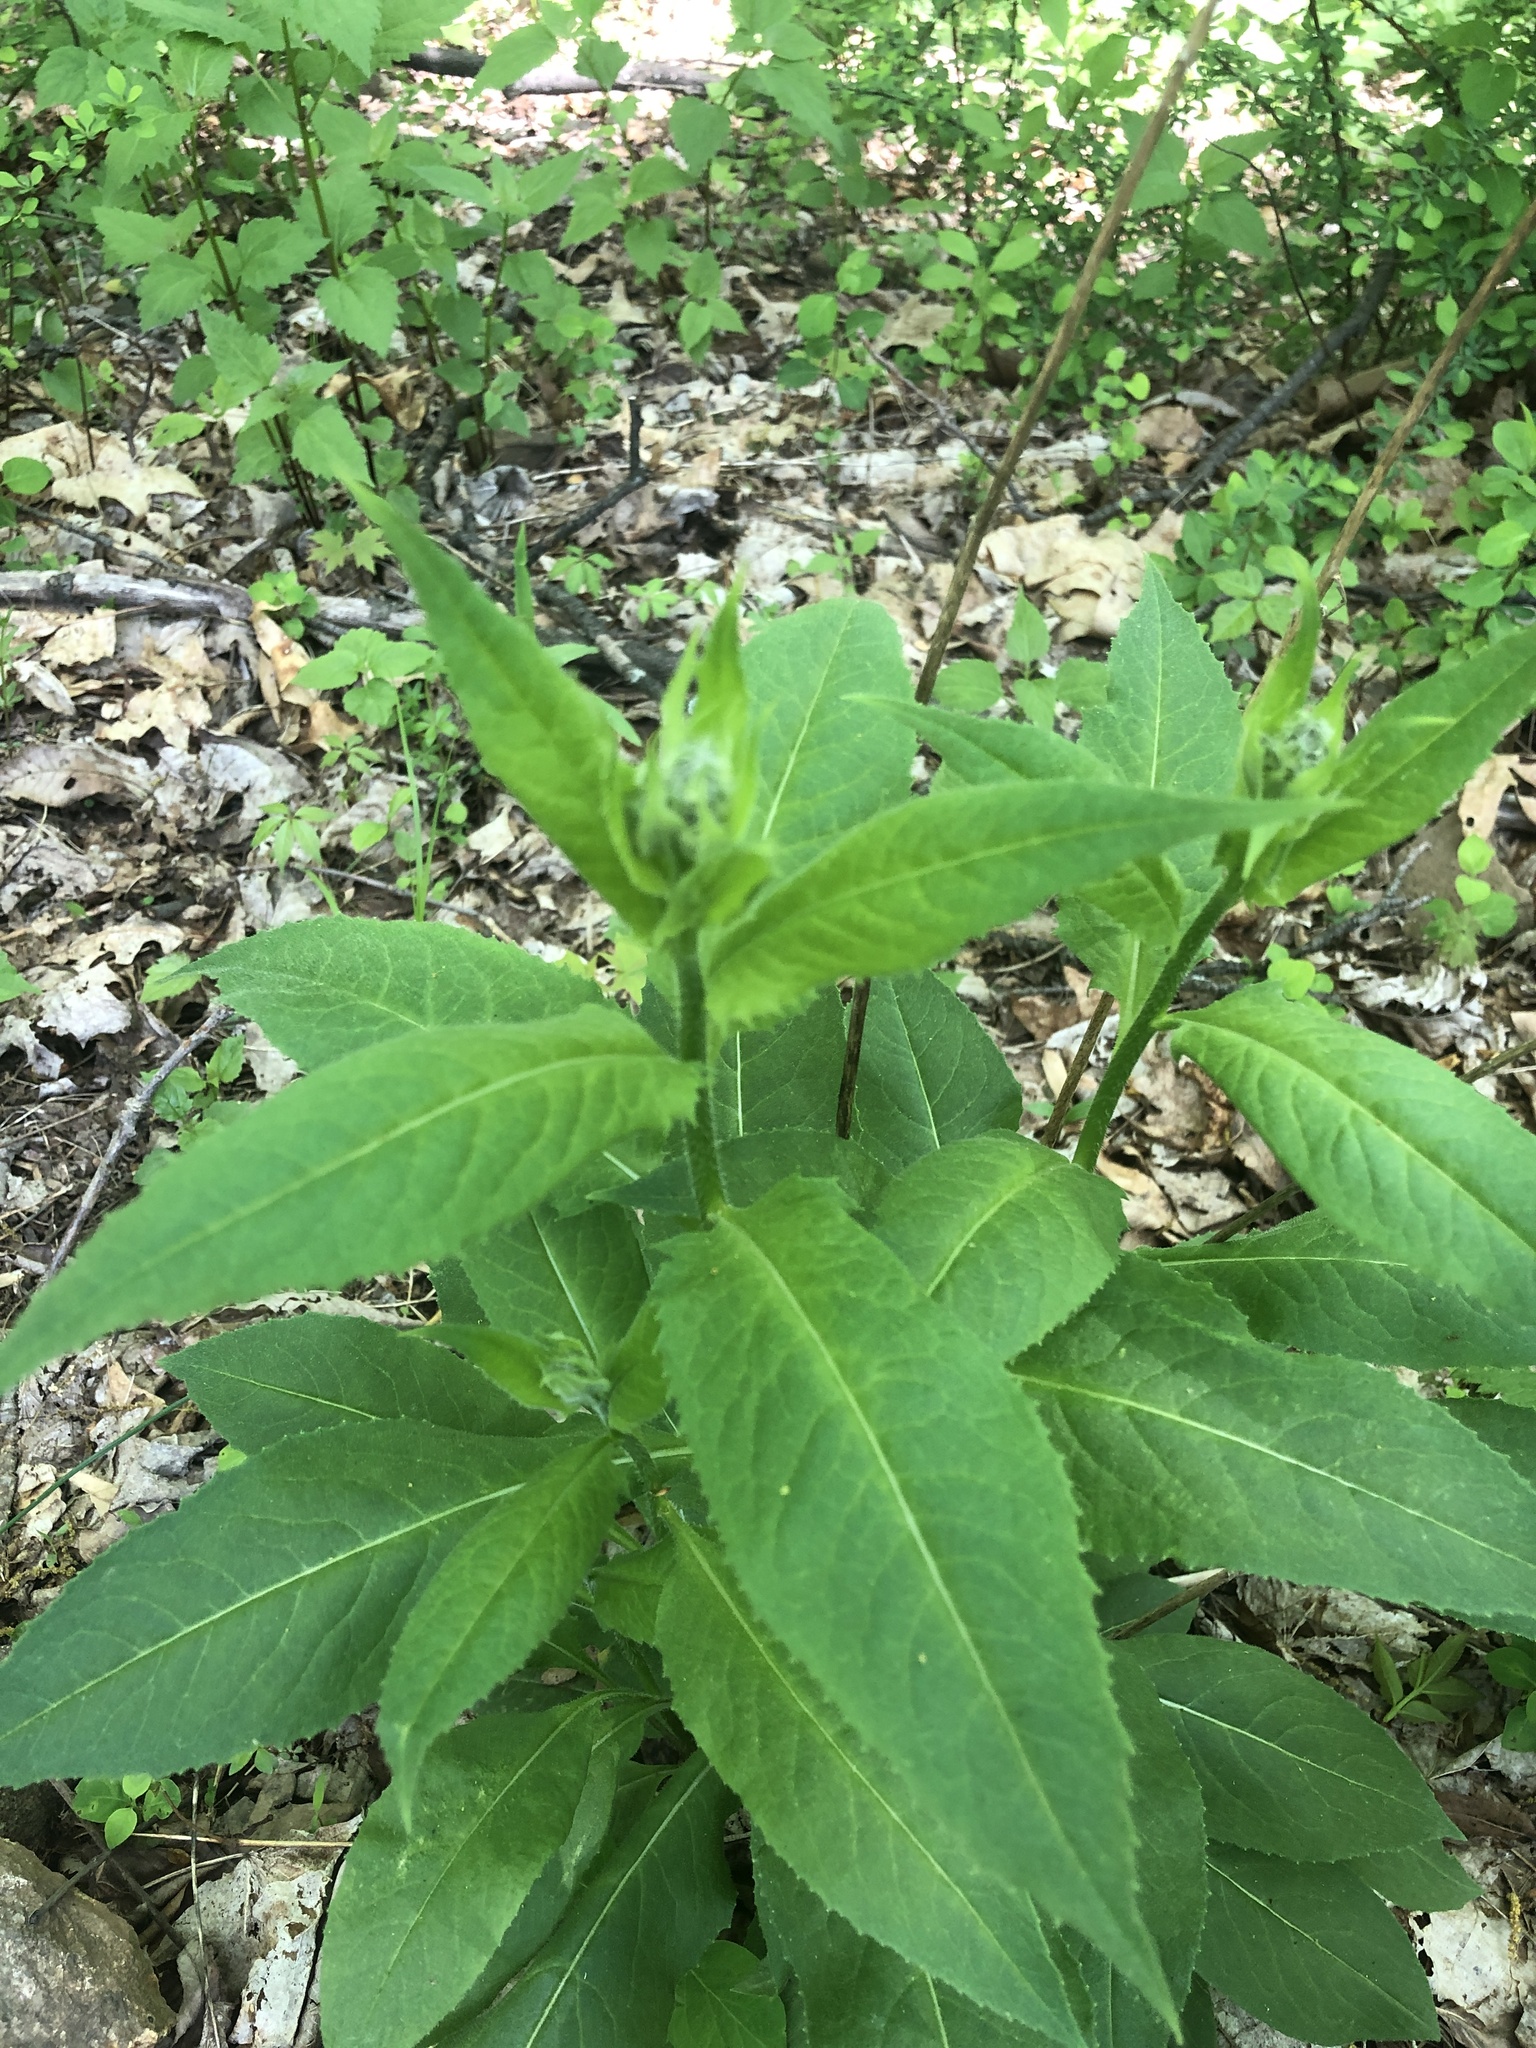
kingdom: Plantae
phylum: Tracheophyta
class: Magnoliopsida
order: Brassicales
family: Brassicaceae
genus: Hesperis
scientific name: Hesperis matronalis
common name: Dame's-violet
